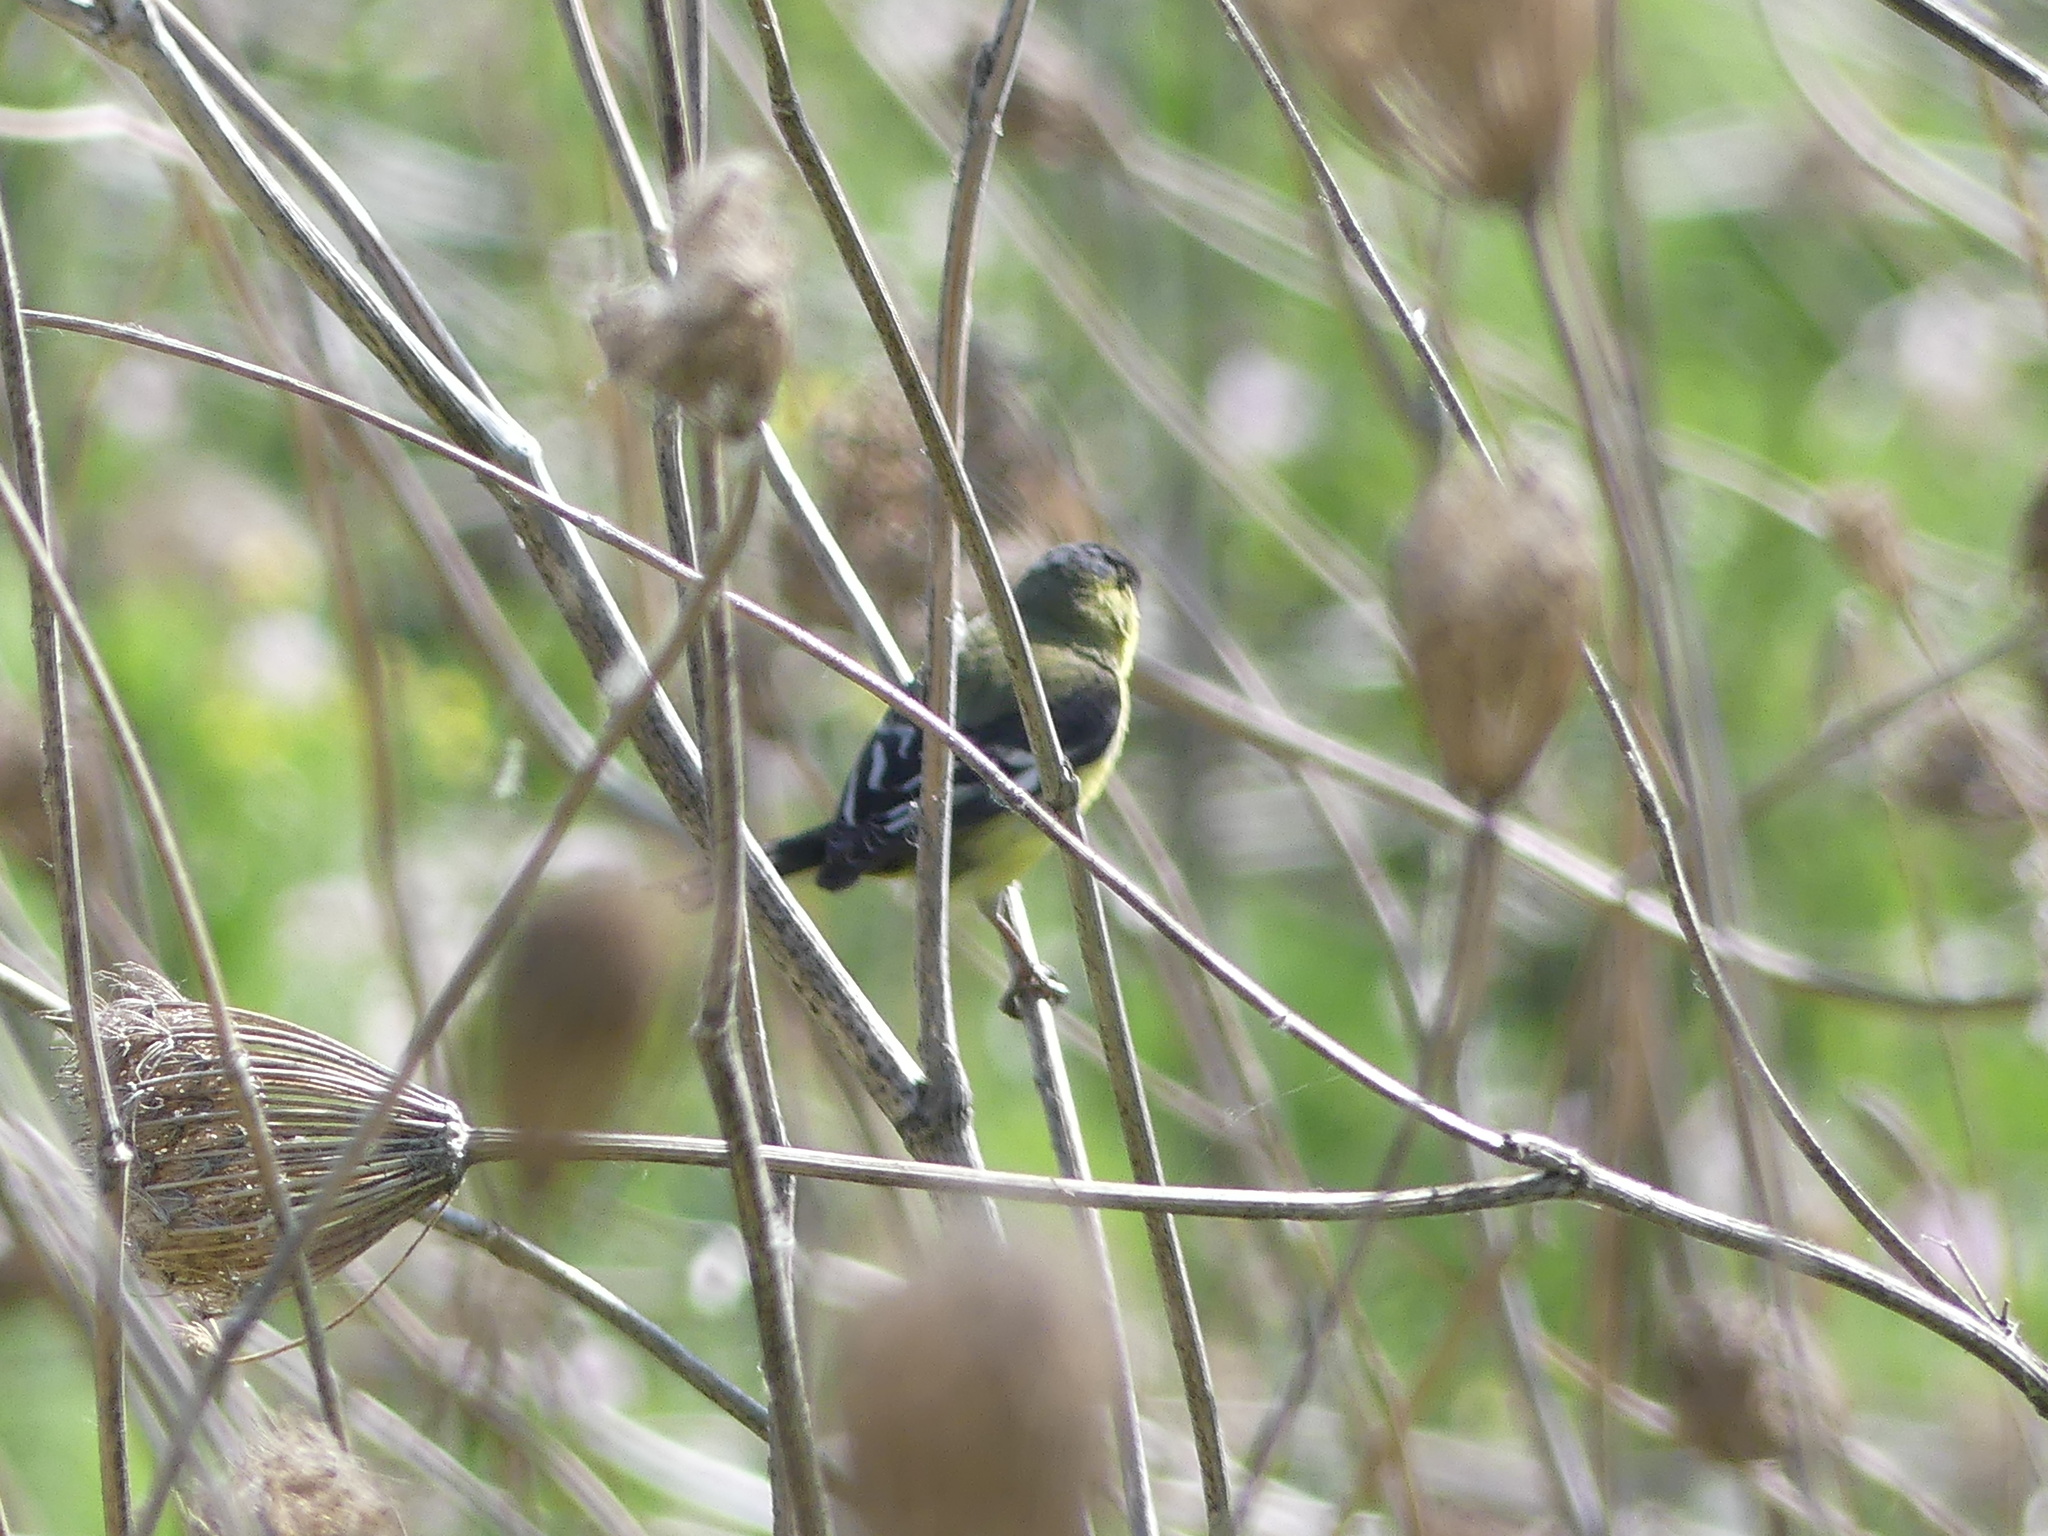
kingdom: Animalia
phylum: Chordata
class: Aves
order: Passeriformes
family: Fringillidae
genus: Spinus
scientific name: Spinus psaltria
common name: Lesser goldfinch
